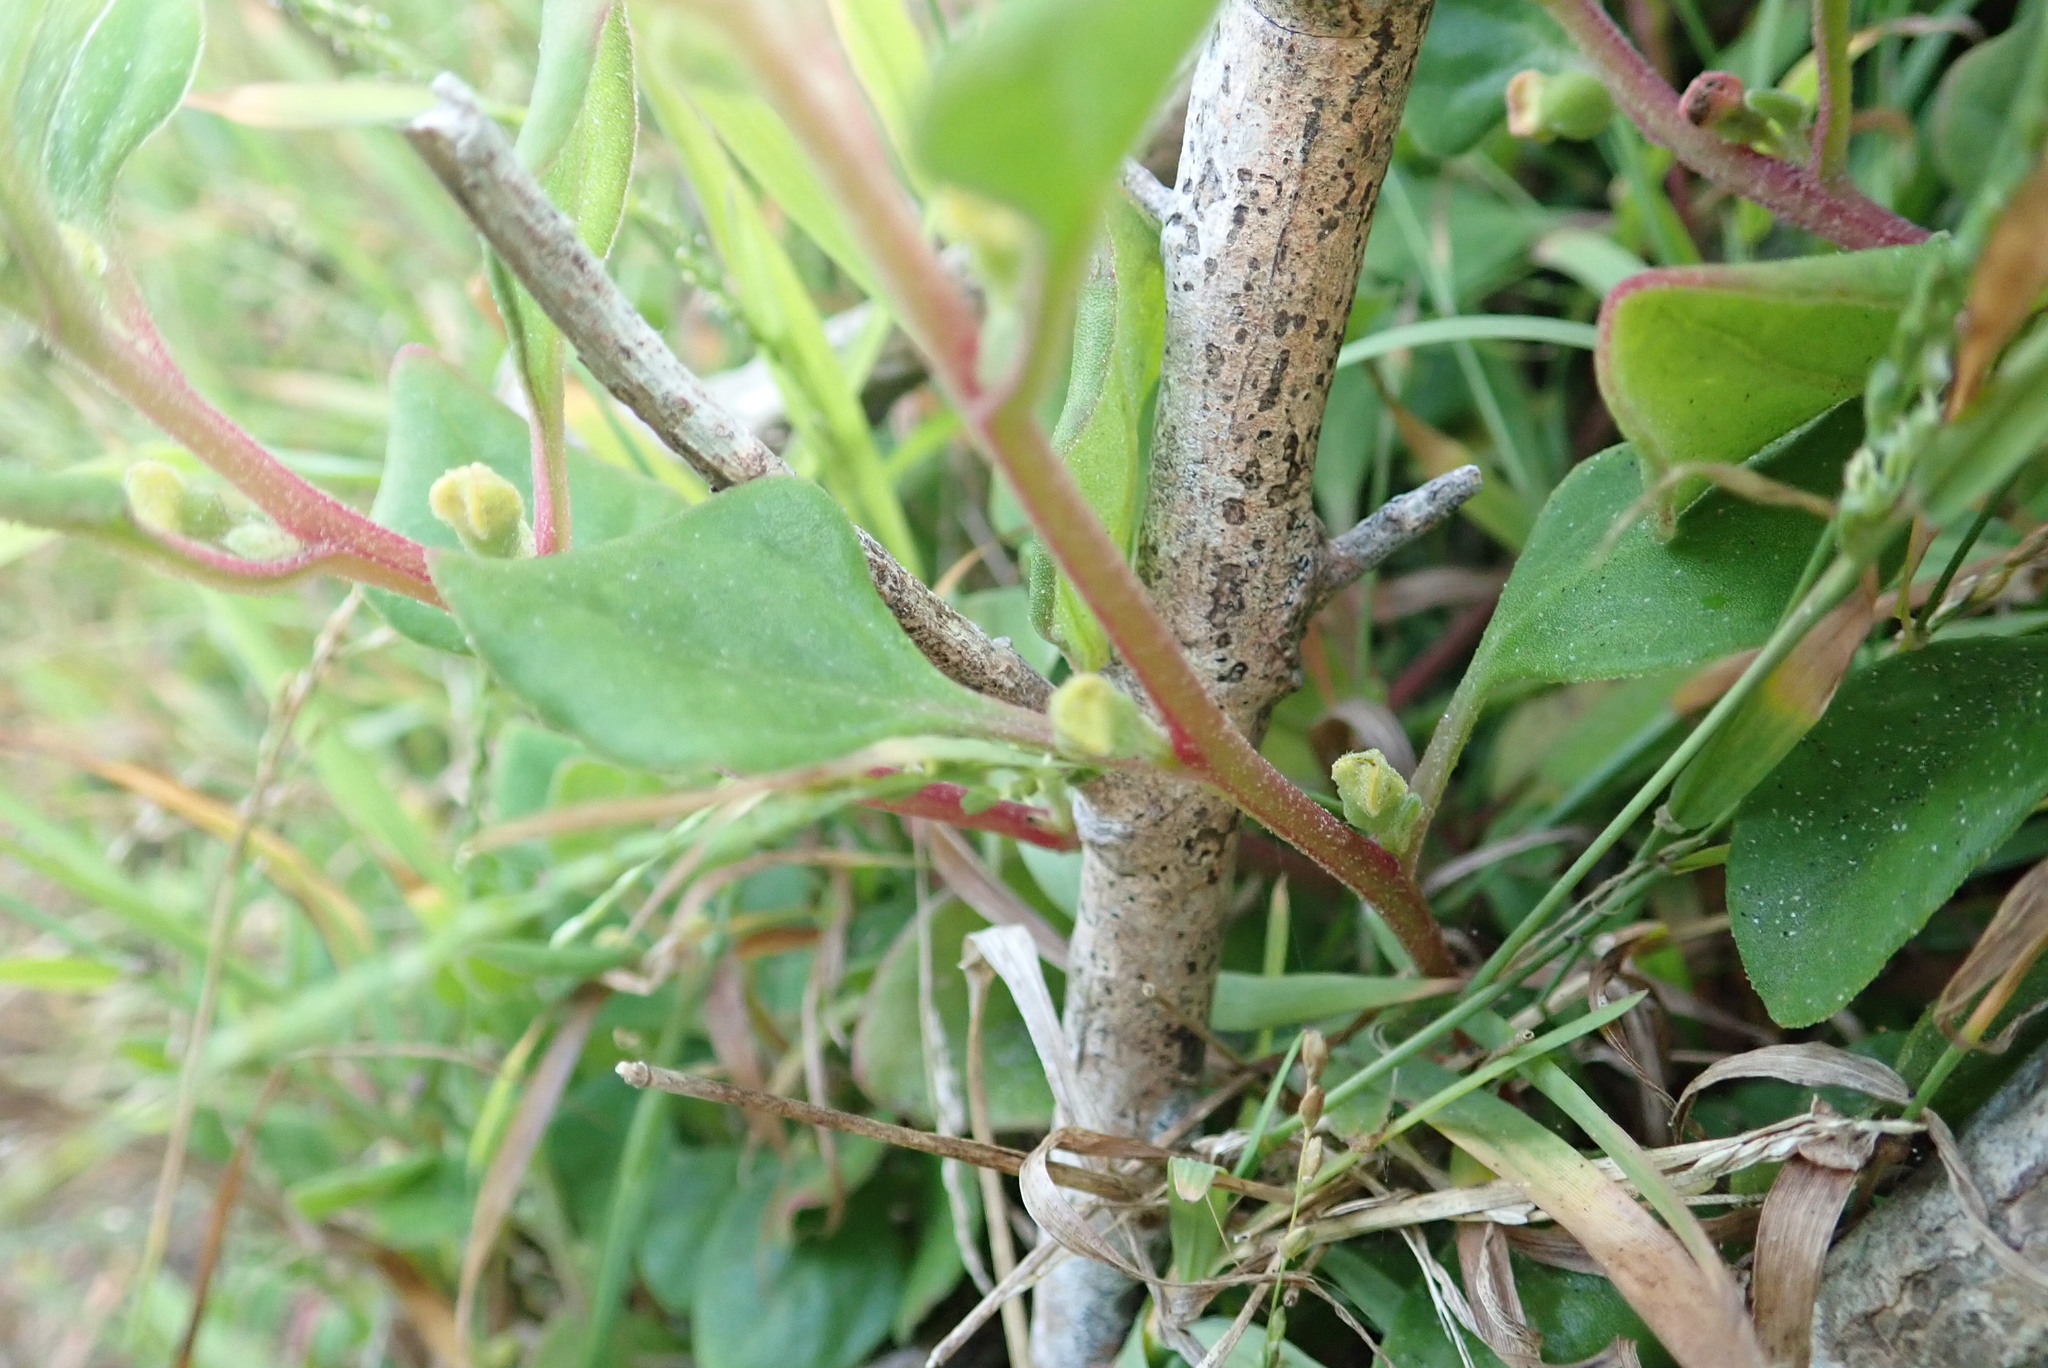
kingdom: Plantae
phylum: Tracheophyta
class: Magnoliopsida
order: Caryophyllales
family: Aizoaceae
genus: Tetragonia
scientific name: Tetragonia implexicoma
